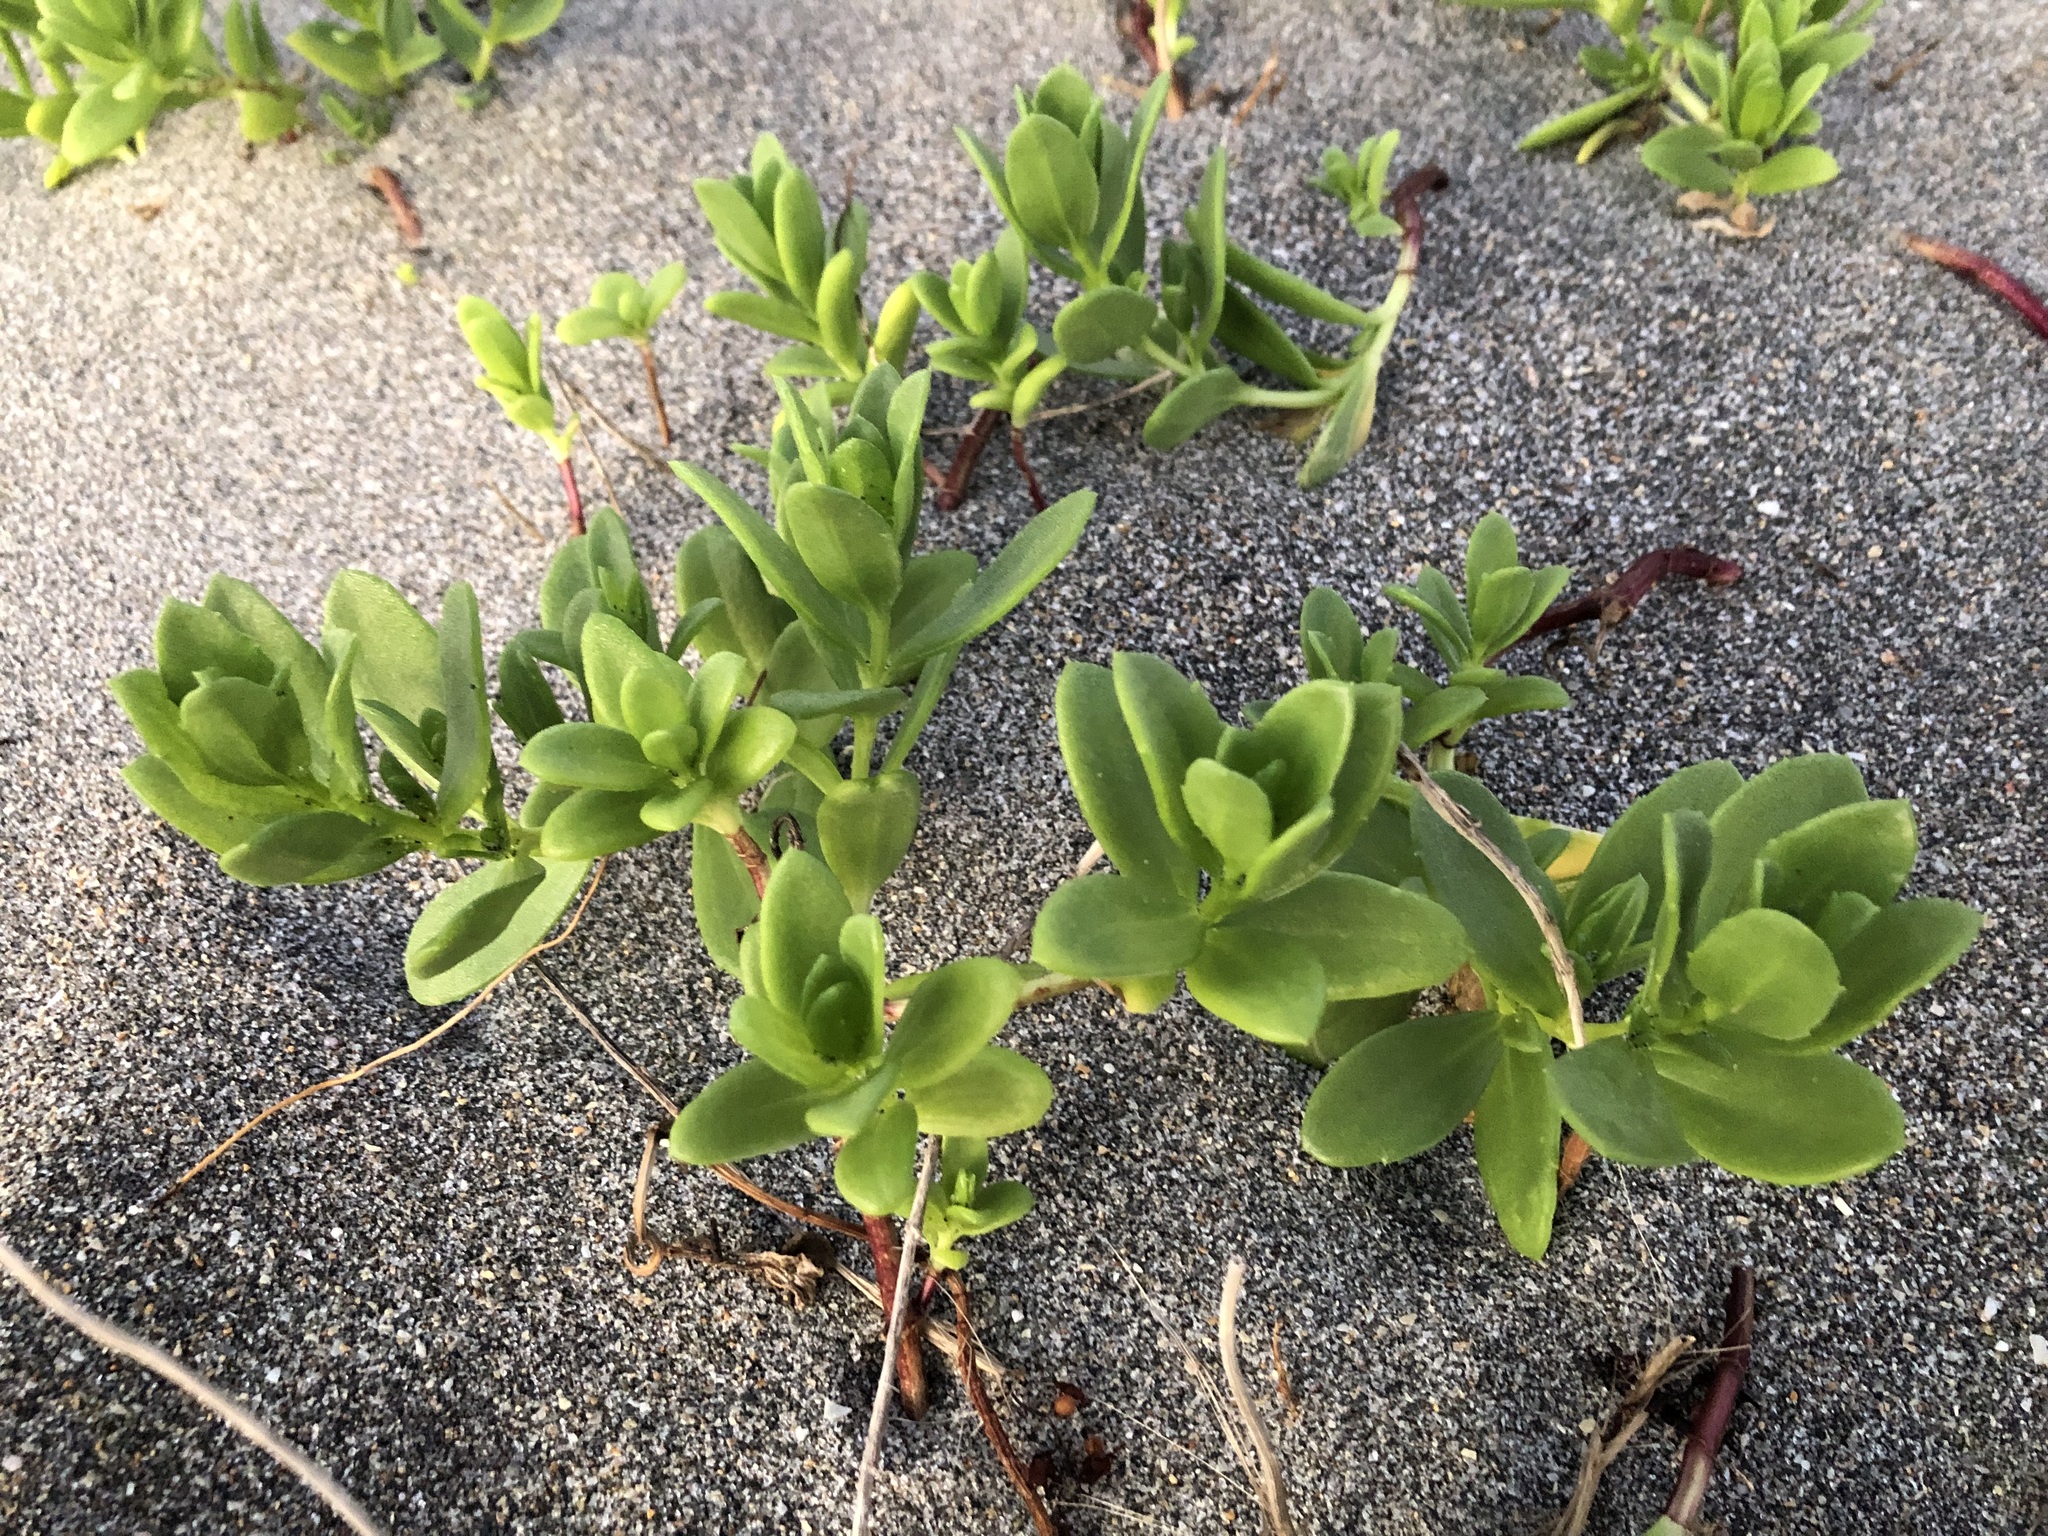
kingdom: Plantae
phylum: Tracheophyta
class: Magnoliopsida
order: Asterales
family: Asteraceae
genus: Iva
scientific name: Iva imbricata
